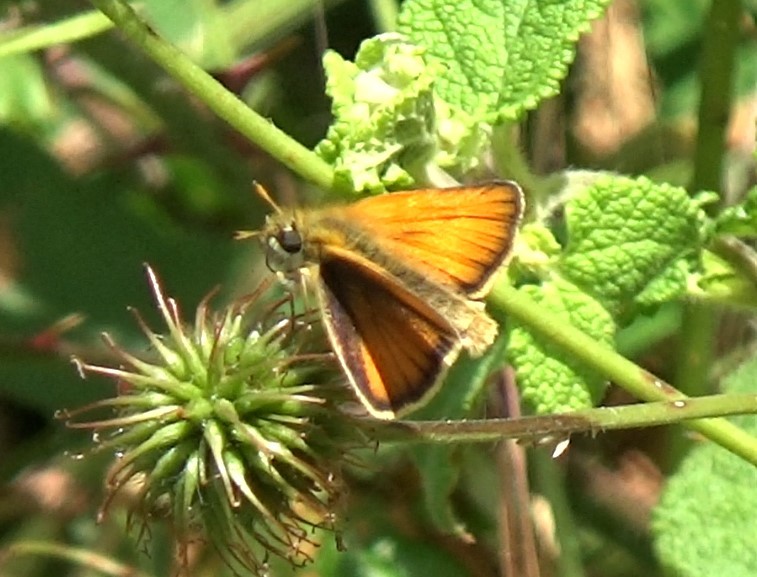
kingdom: Animalia
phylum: Arthropoda
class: Insecta
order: Lepidoptera
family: Hesperiidae
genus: Thymelicus
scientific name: Thymelicus lineola
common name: Essex skipper
